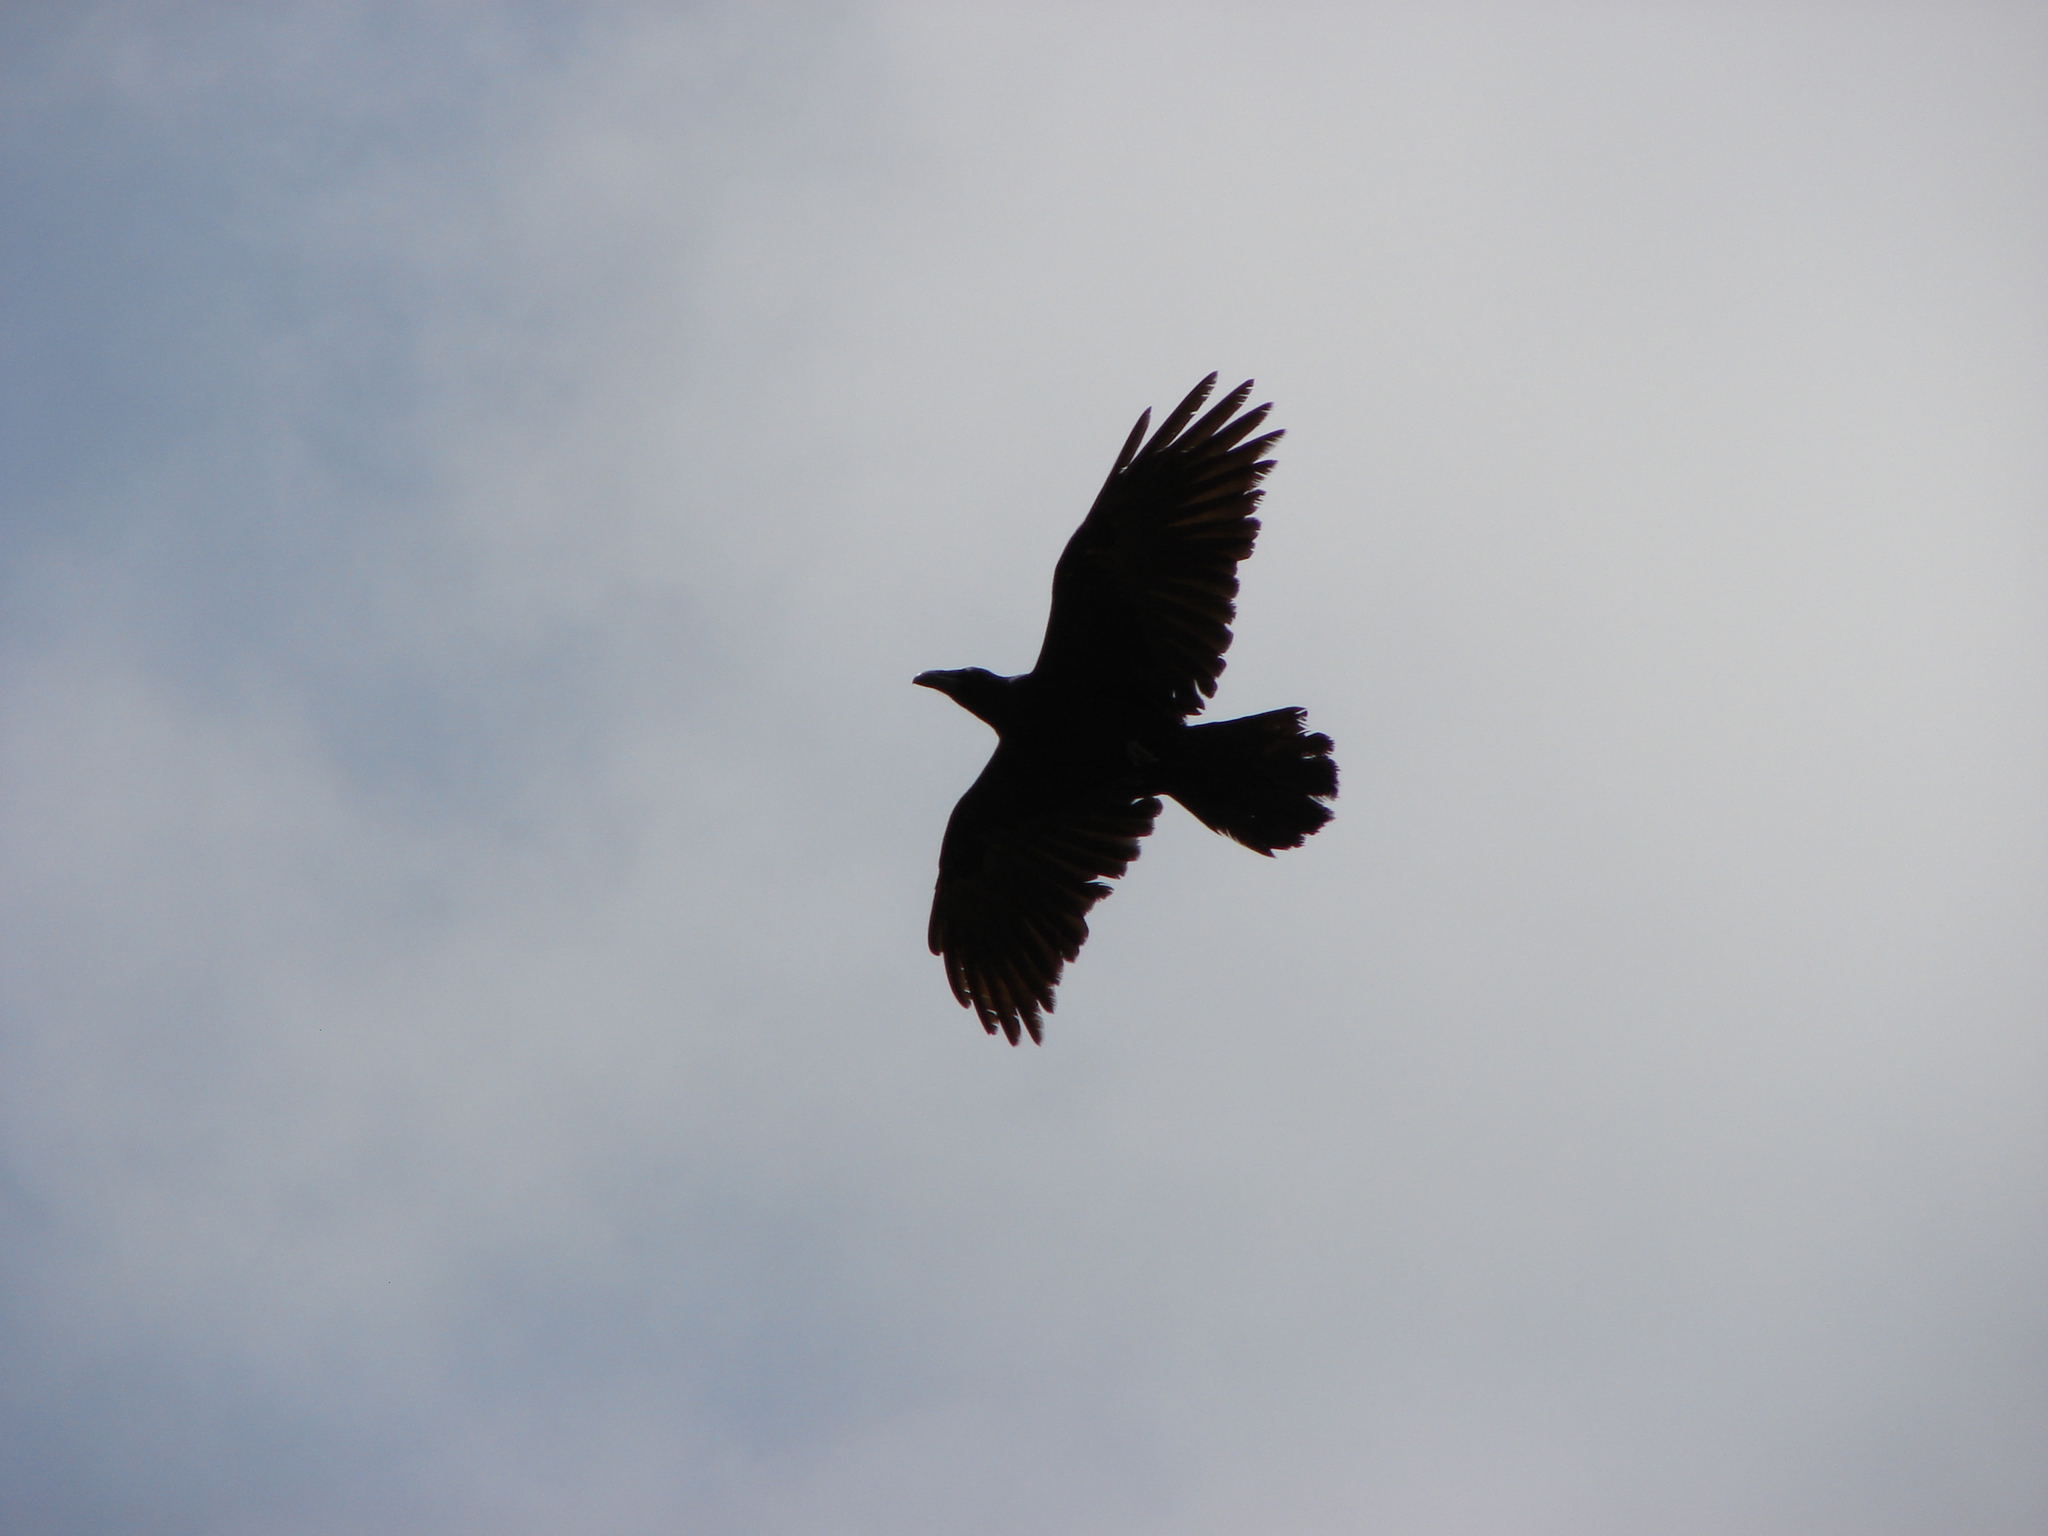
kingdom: Animalia
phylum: Chordata
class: Aves
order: Passeriformes
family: Corvidae
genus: Corvus
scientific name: Corvus corax
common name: Common raven
